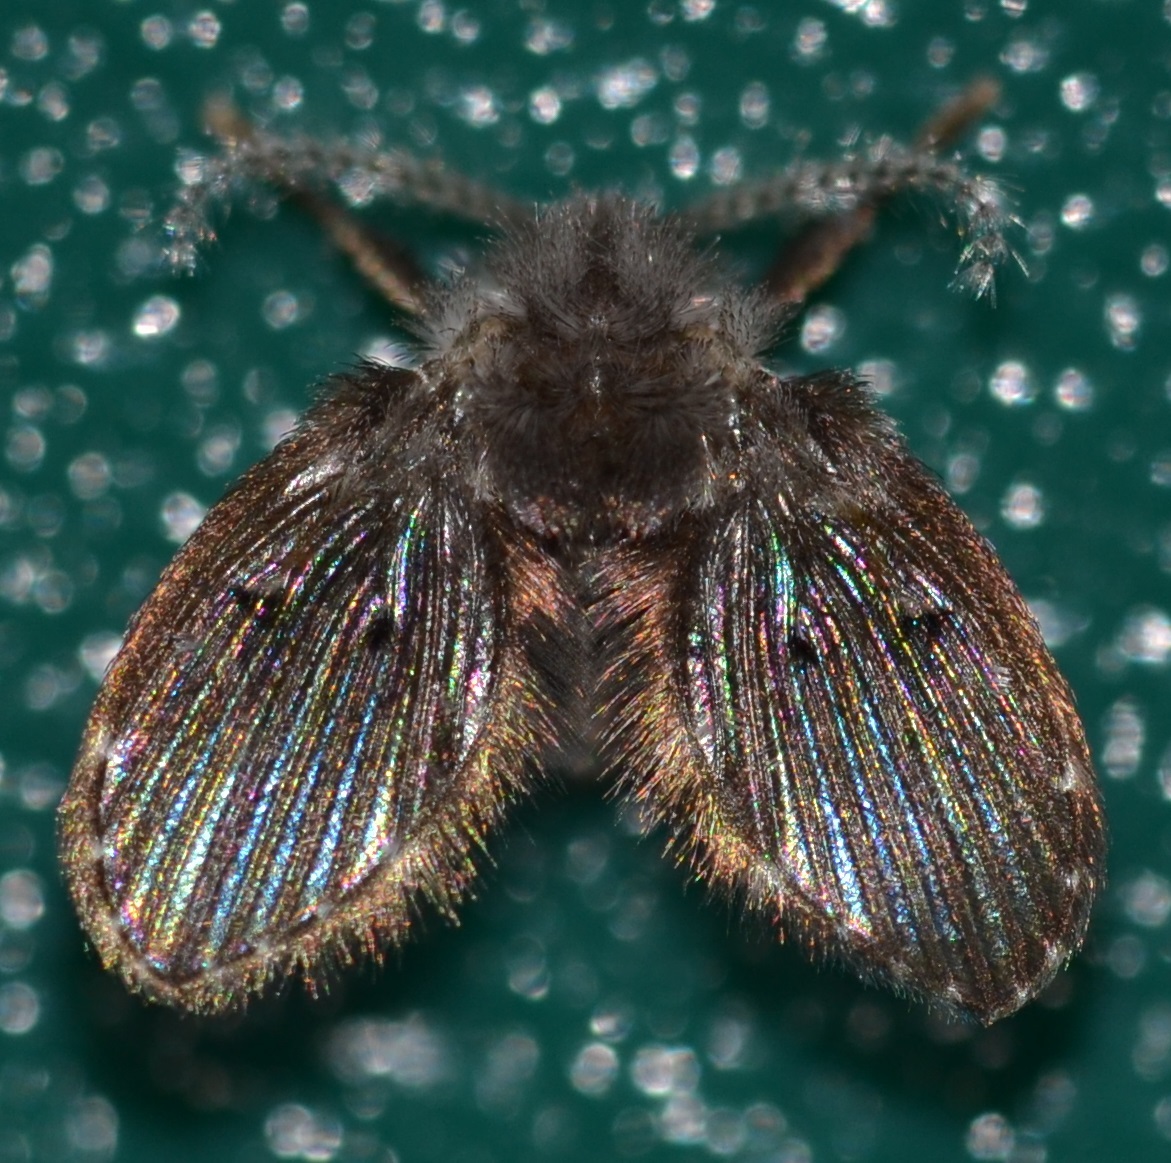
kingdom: Animalia
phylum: Arthropoda
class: Insecta
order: Diptera
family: Psychodidae
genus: Clogmia
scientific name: Clogmia albipunctatus
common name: White-spotted moth fly
